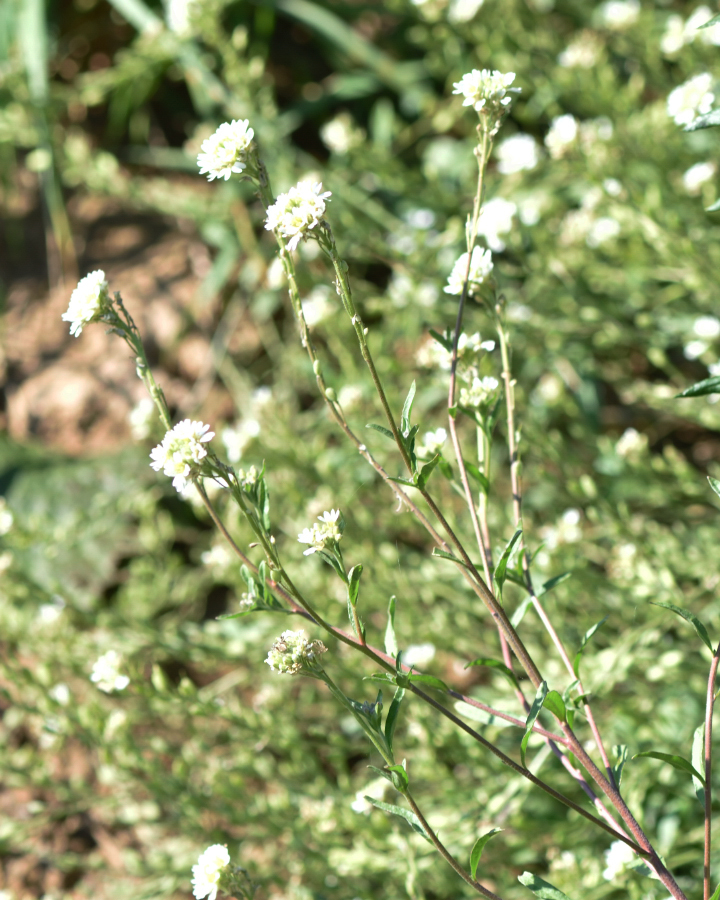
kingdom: Plantae
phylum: Tracheophyta
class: Magnoliopsida
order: Brassicales
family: Brassicaceae
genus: Berteroa
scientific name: Berteroa incana
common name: Hoary alison
